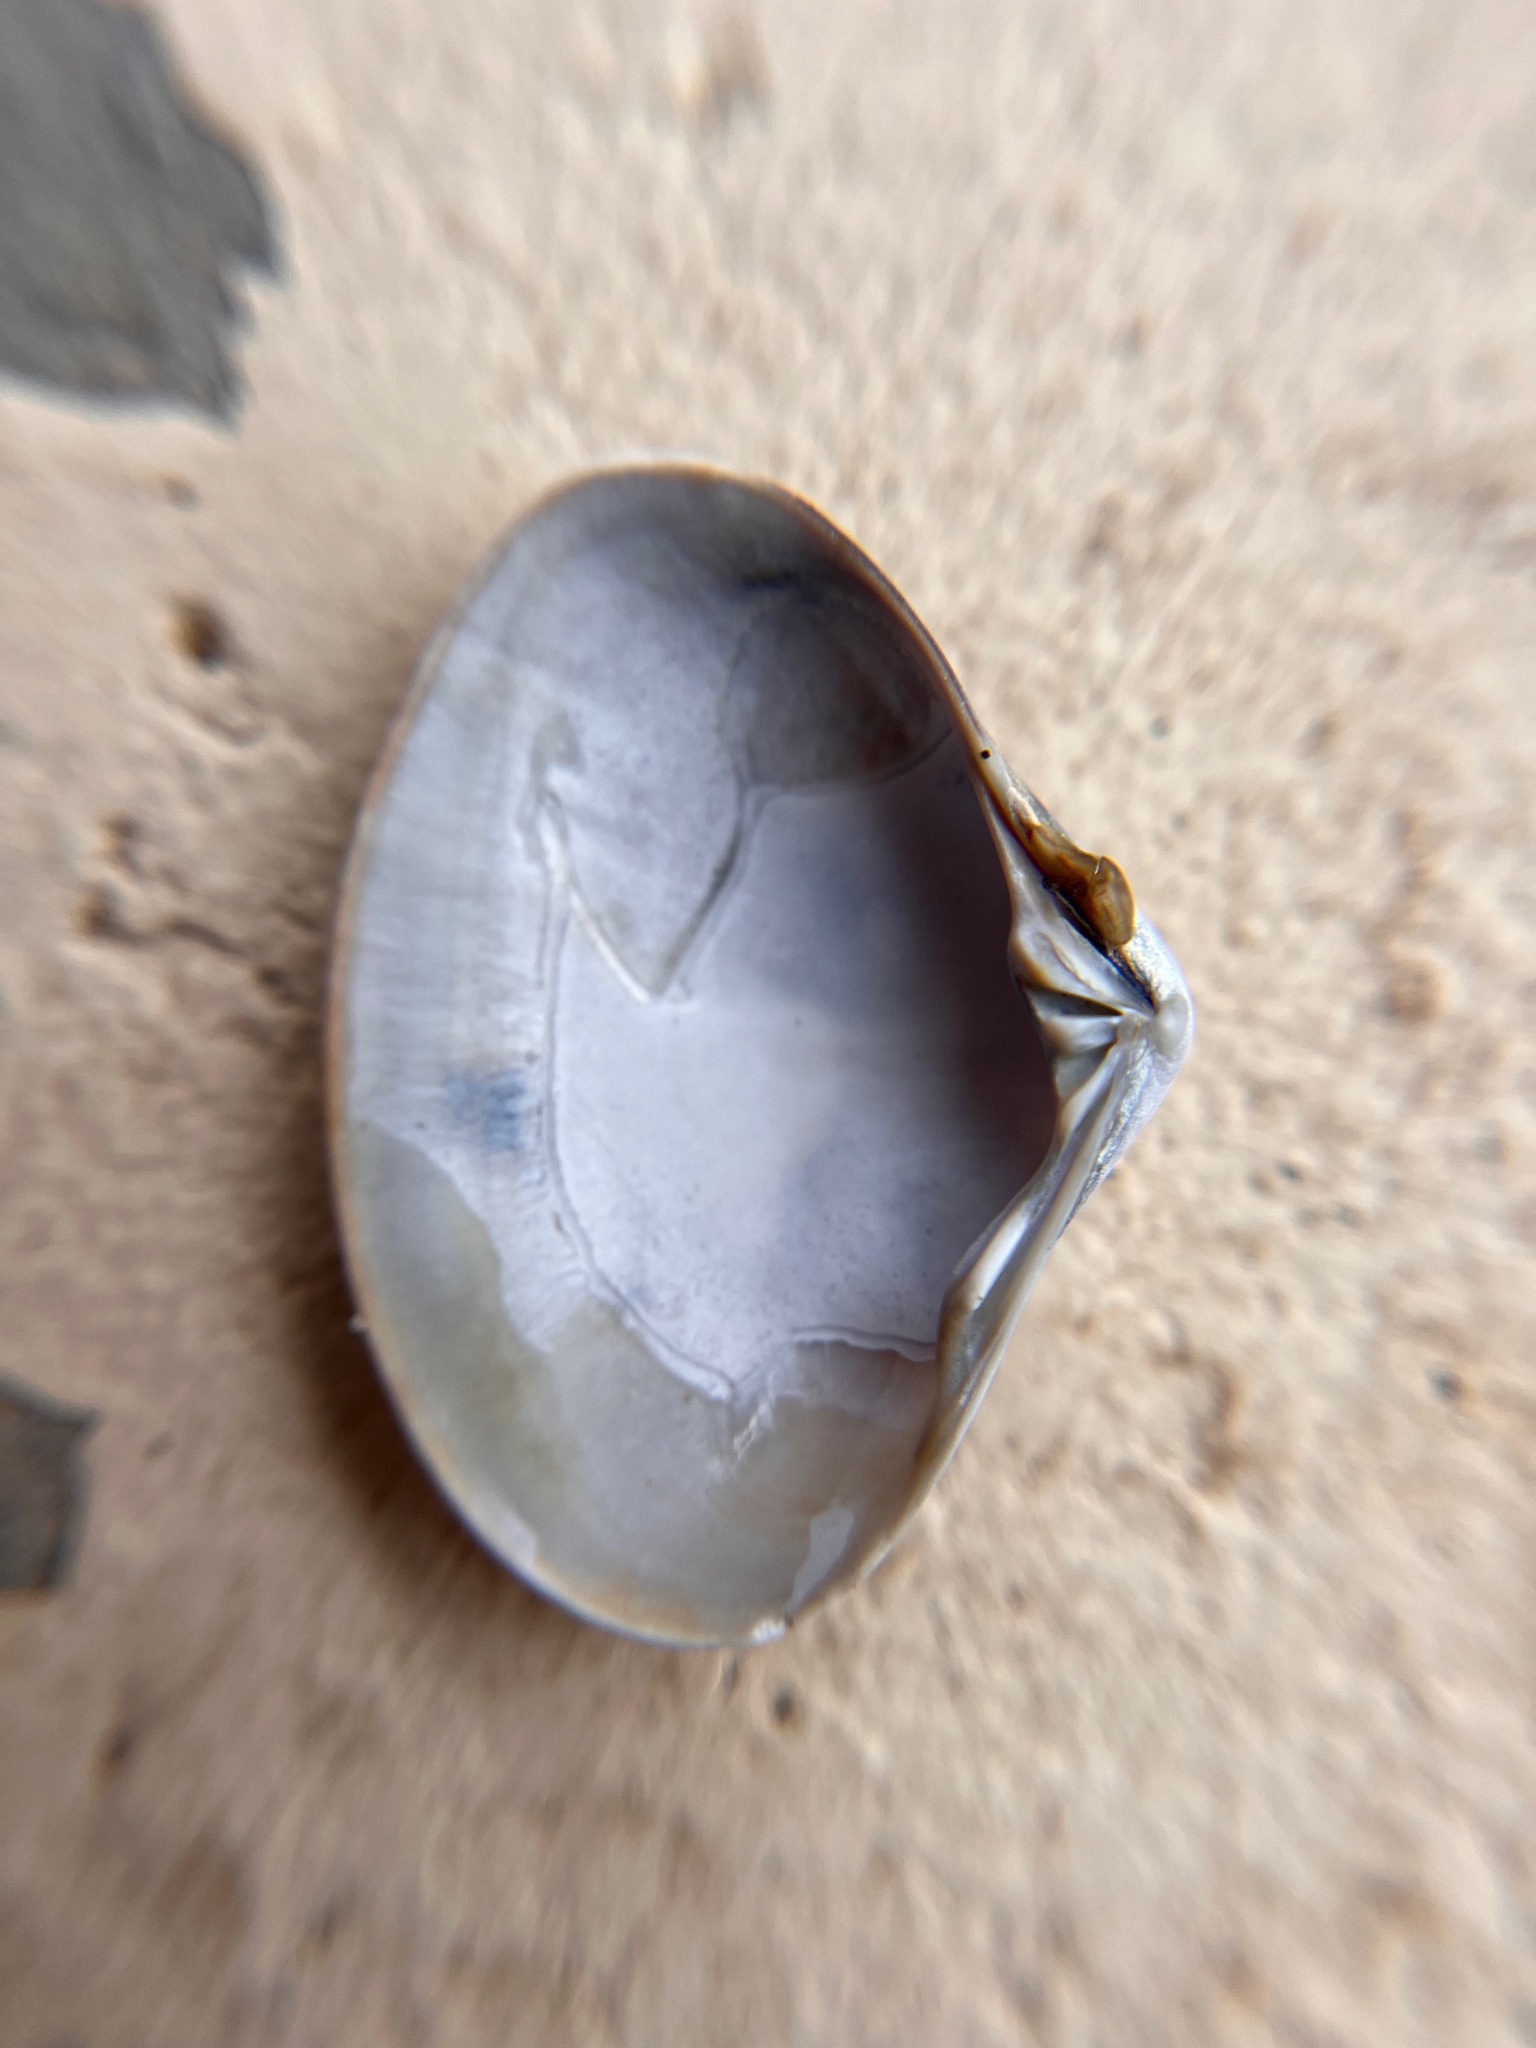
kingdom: Animalia
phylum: Mollusca
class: Bivalvia
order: Venerida
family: Veneridae
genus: Tivela
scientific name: Tivela stultorum
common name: Pismo clam
